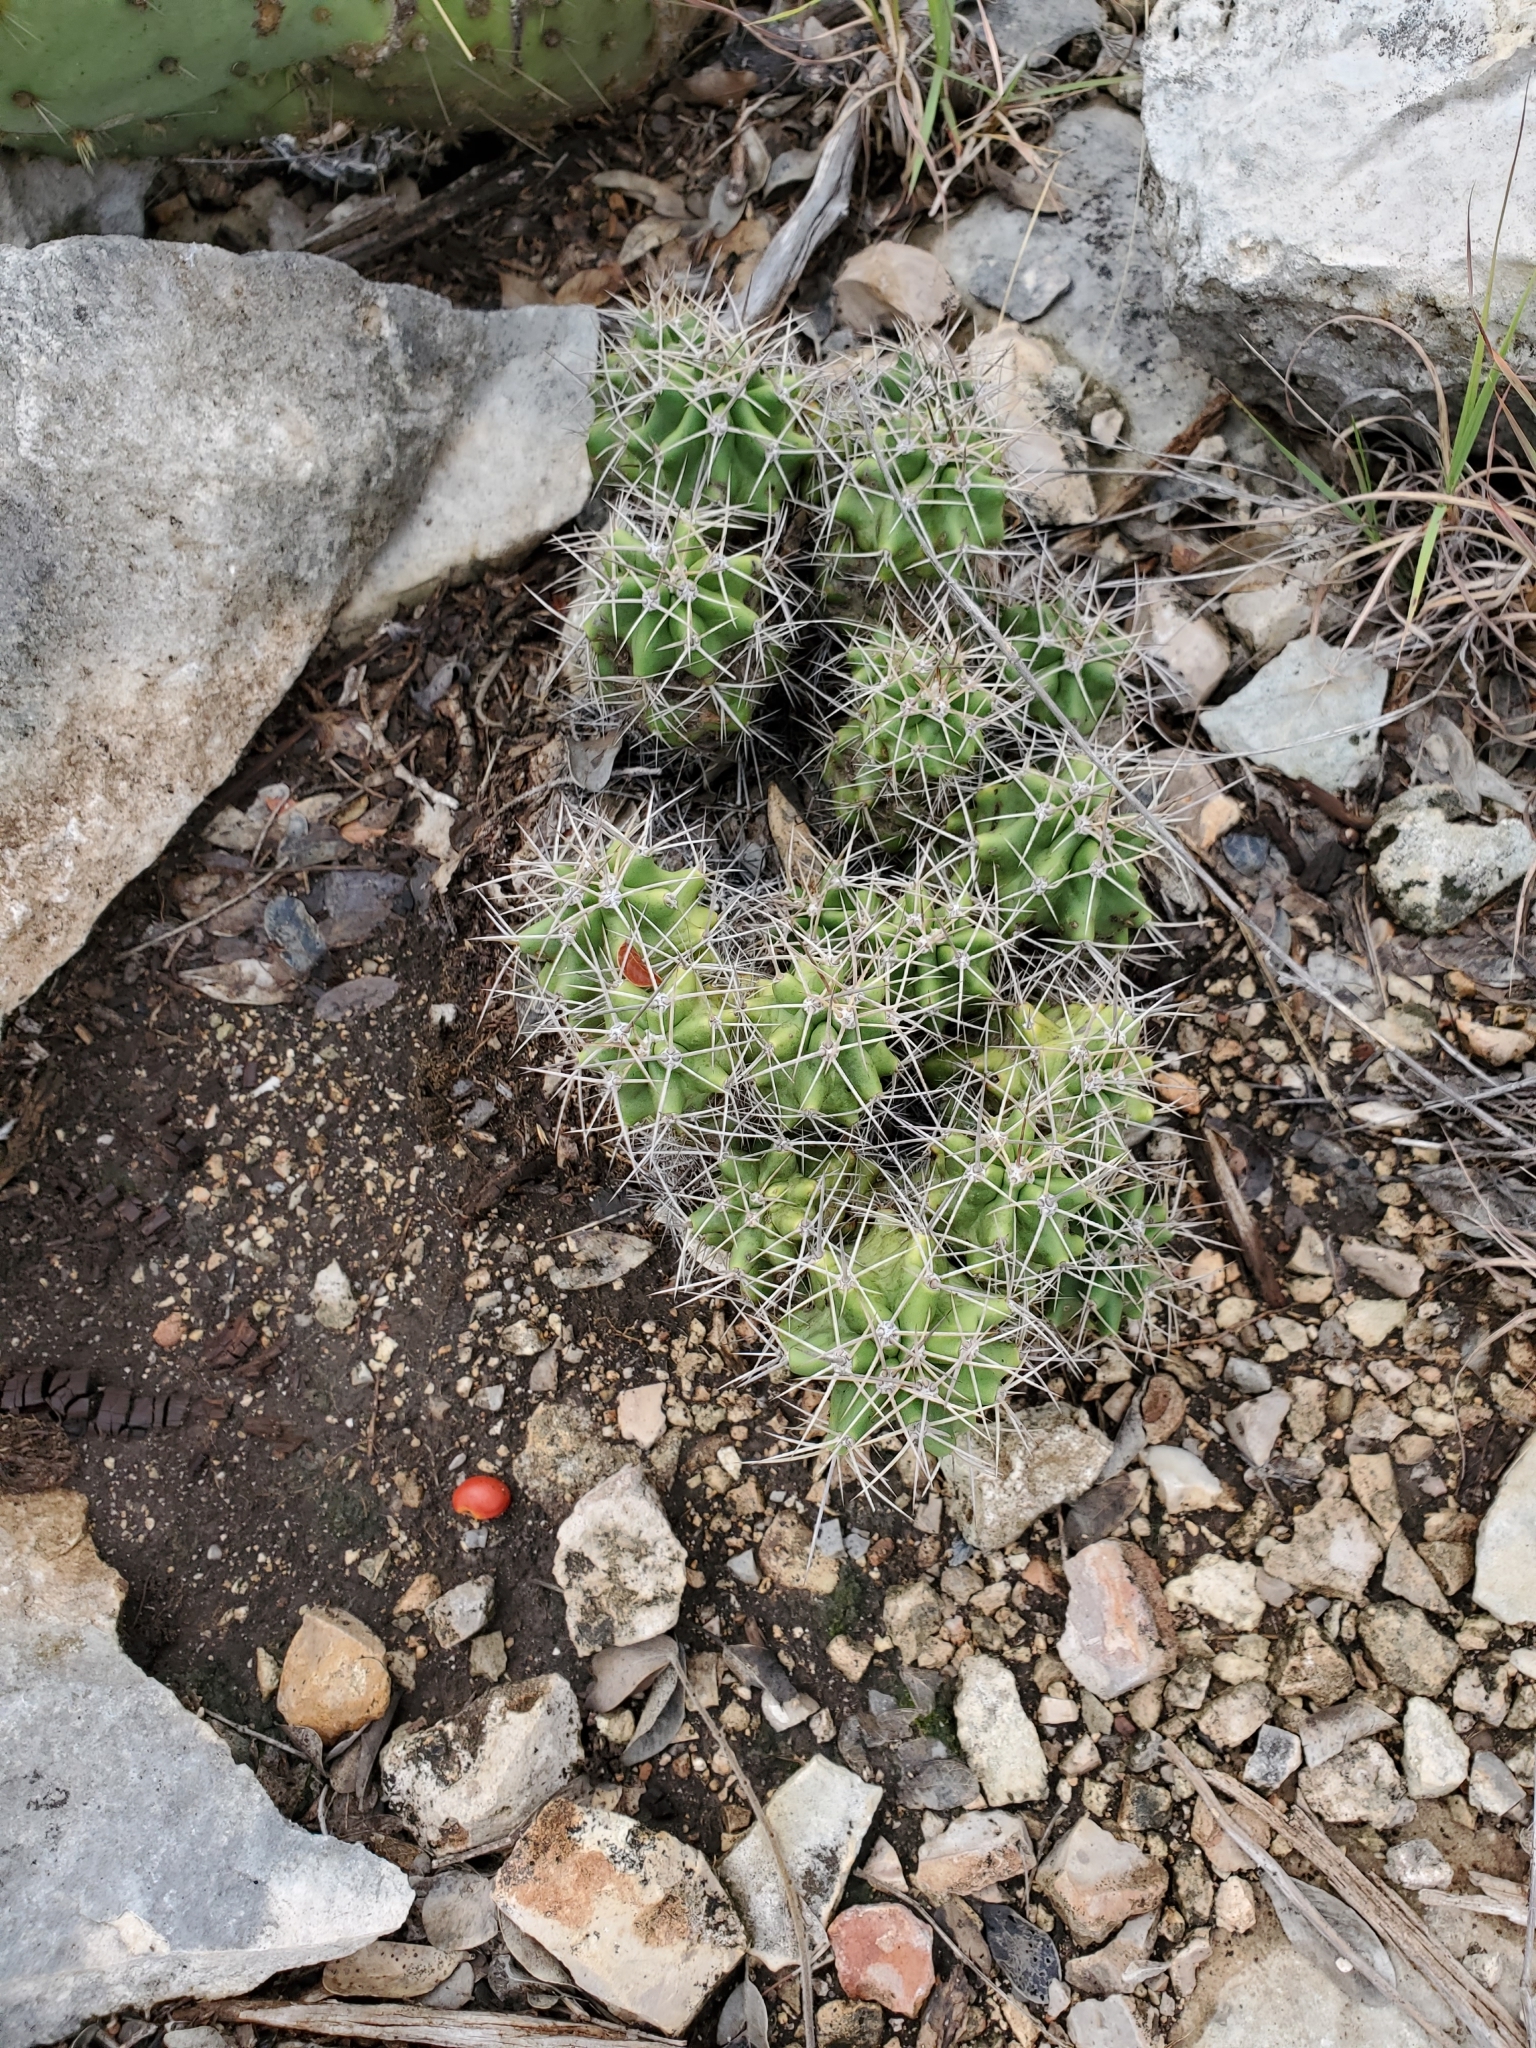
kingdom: Plantae
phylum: Tracheophyta
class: Magnoliopsida
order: Caryophyllales
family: Cactaceae
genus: Echinocereus
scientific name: Echinocereus coccineus
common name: Scarlet hedgehog cactus
